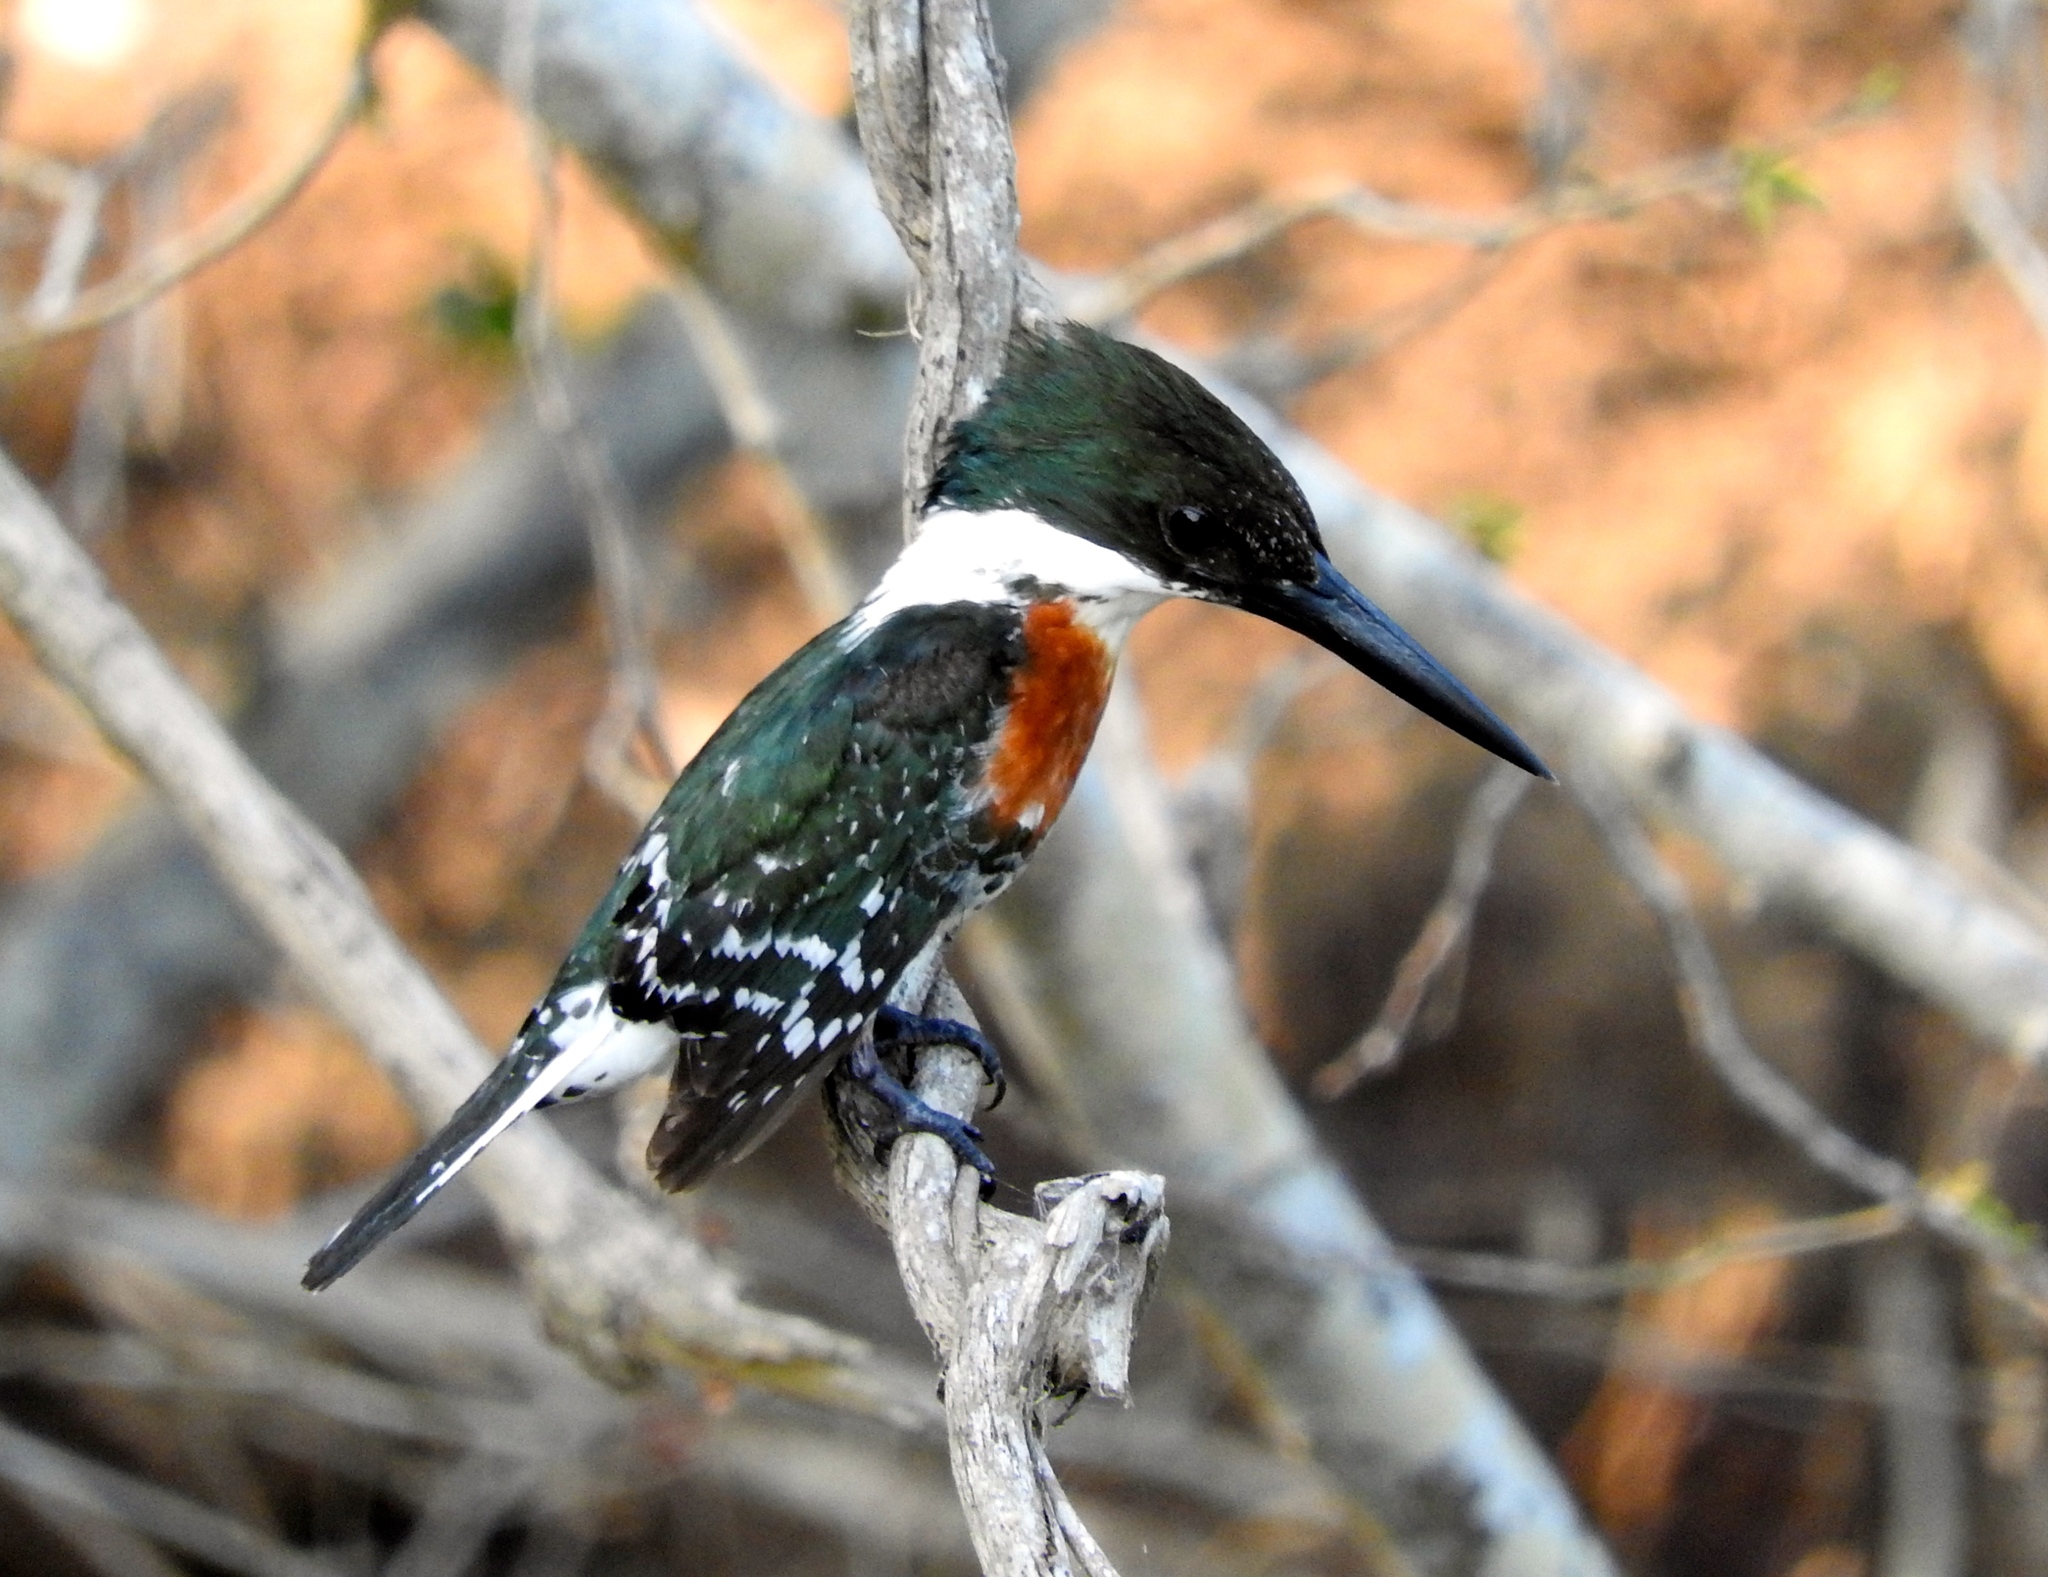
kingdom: Animalia
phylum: Chordata
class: Aves
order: Coraciiformes
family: Alcedinidae
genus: Chloroceryle
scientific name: Chloroceryle americana
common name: Green kingfisher
